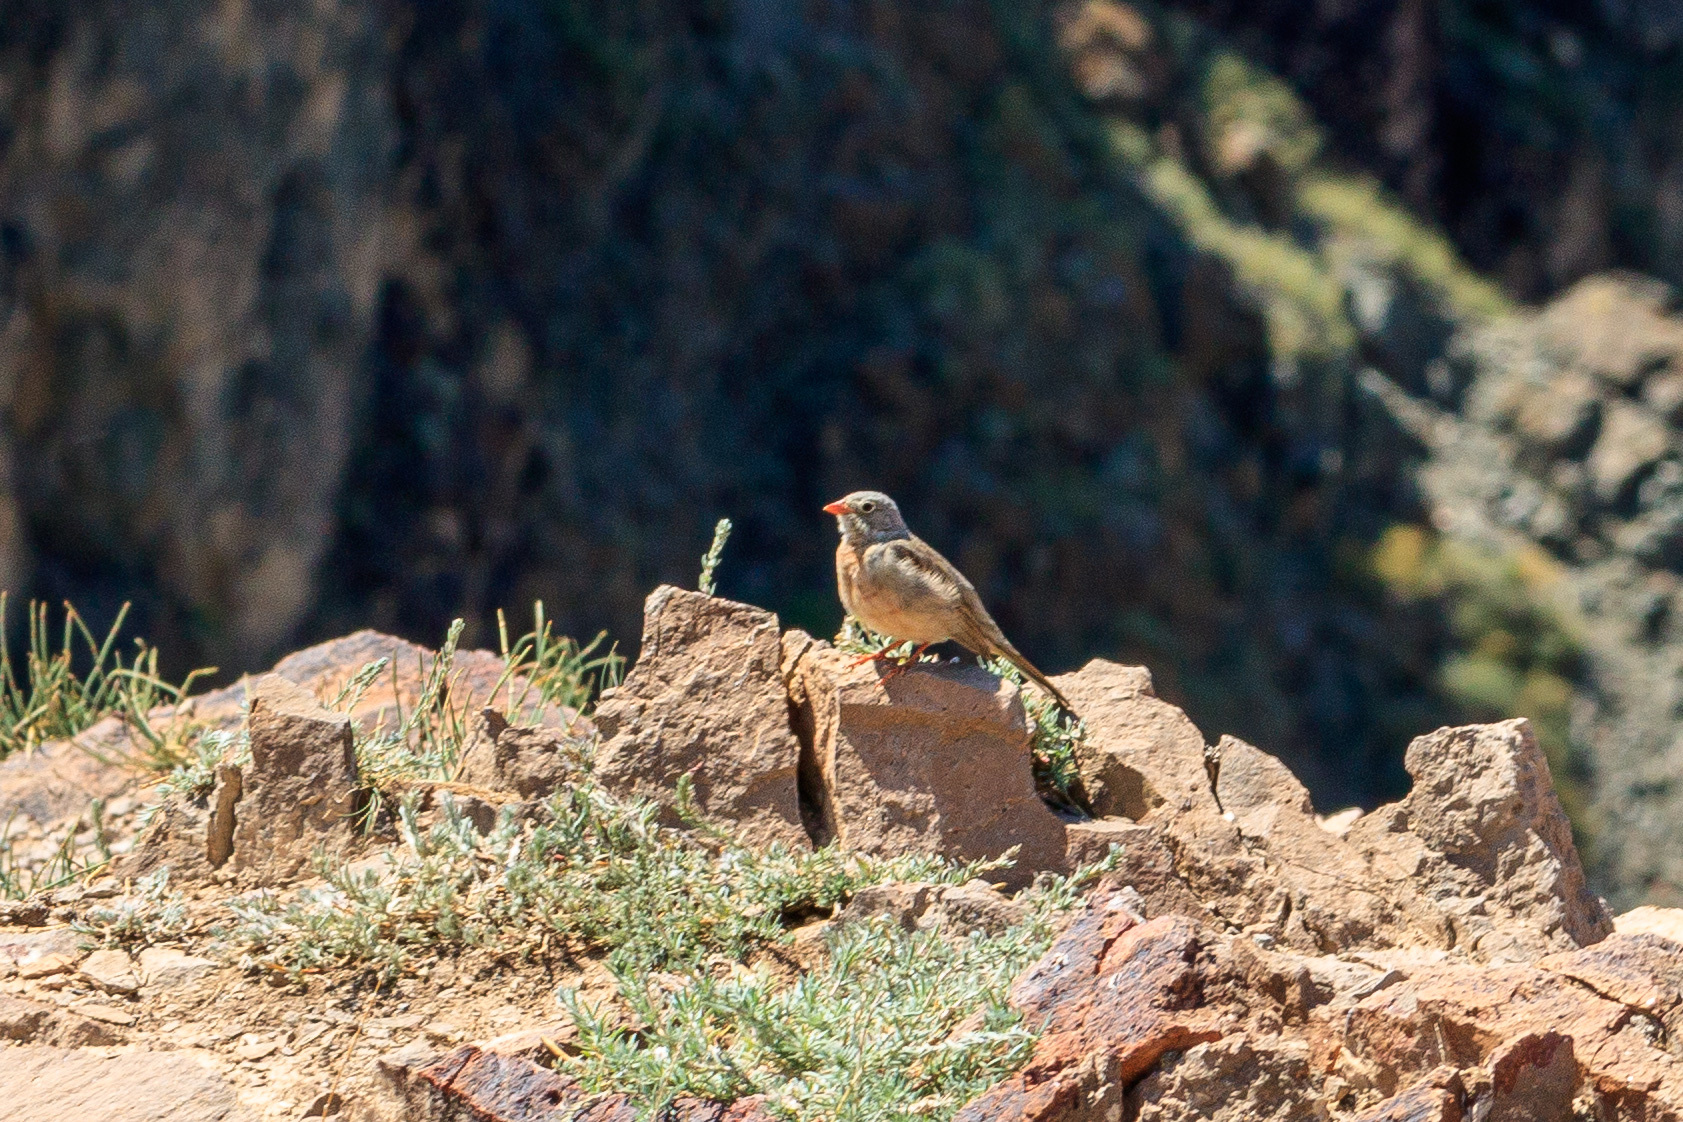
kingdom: Animalia
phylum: Chordata
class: Aves
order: Passeriformes
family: Emberizidae
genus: Emberiza
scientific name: Emberiza buchanani
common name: Grey-necked bunting
